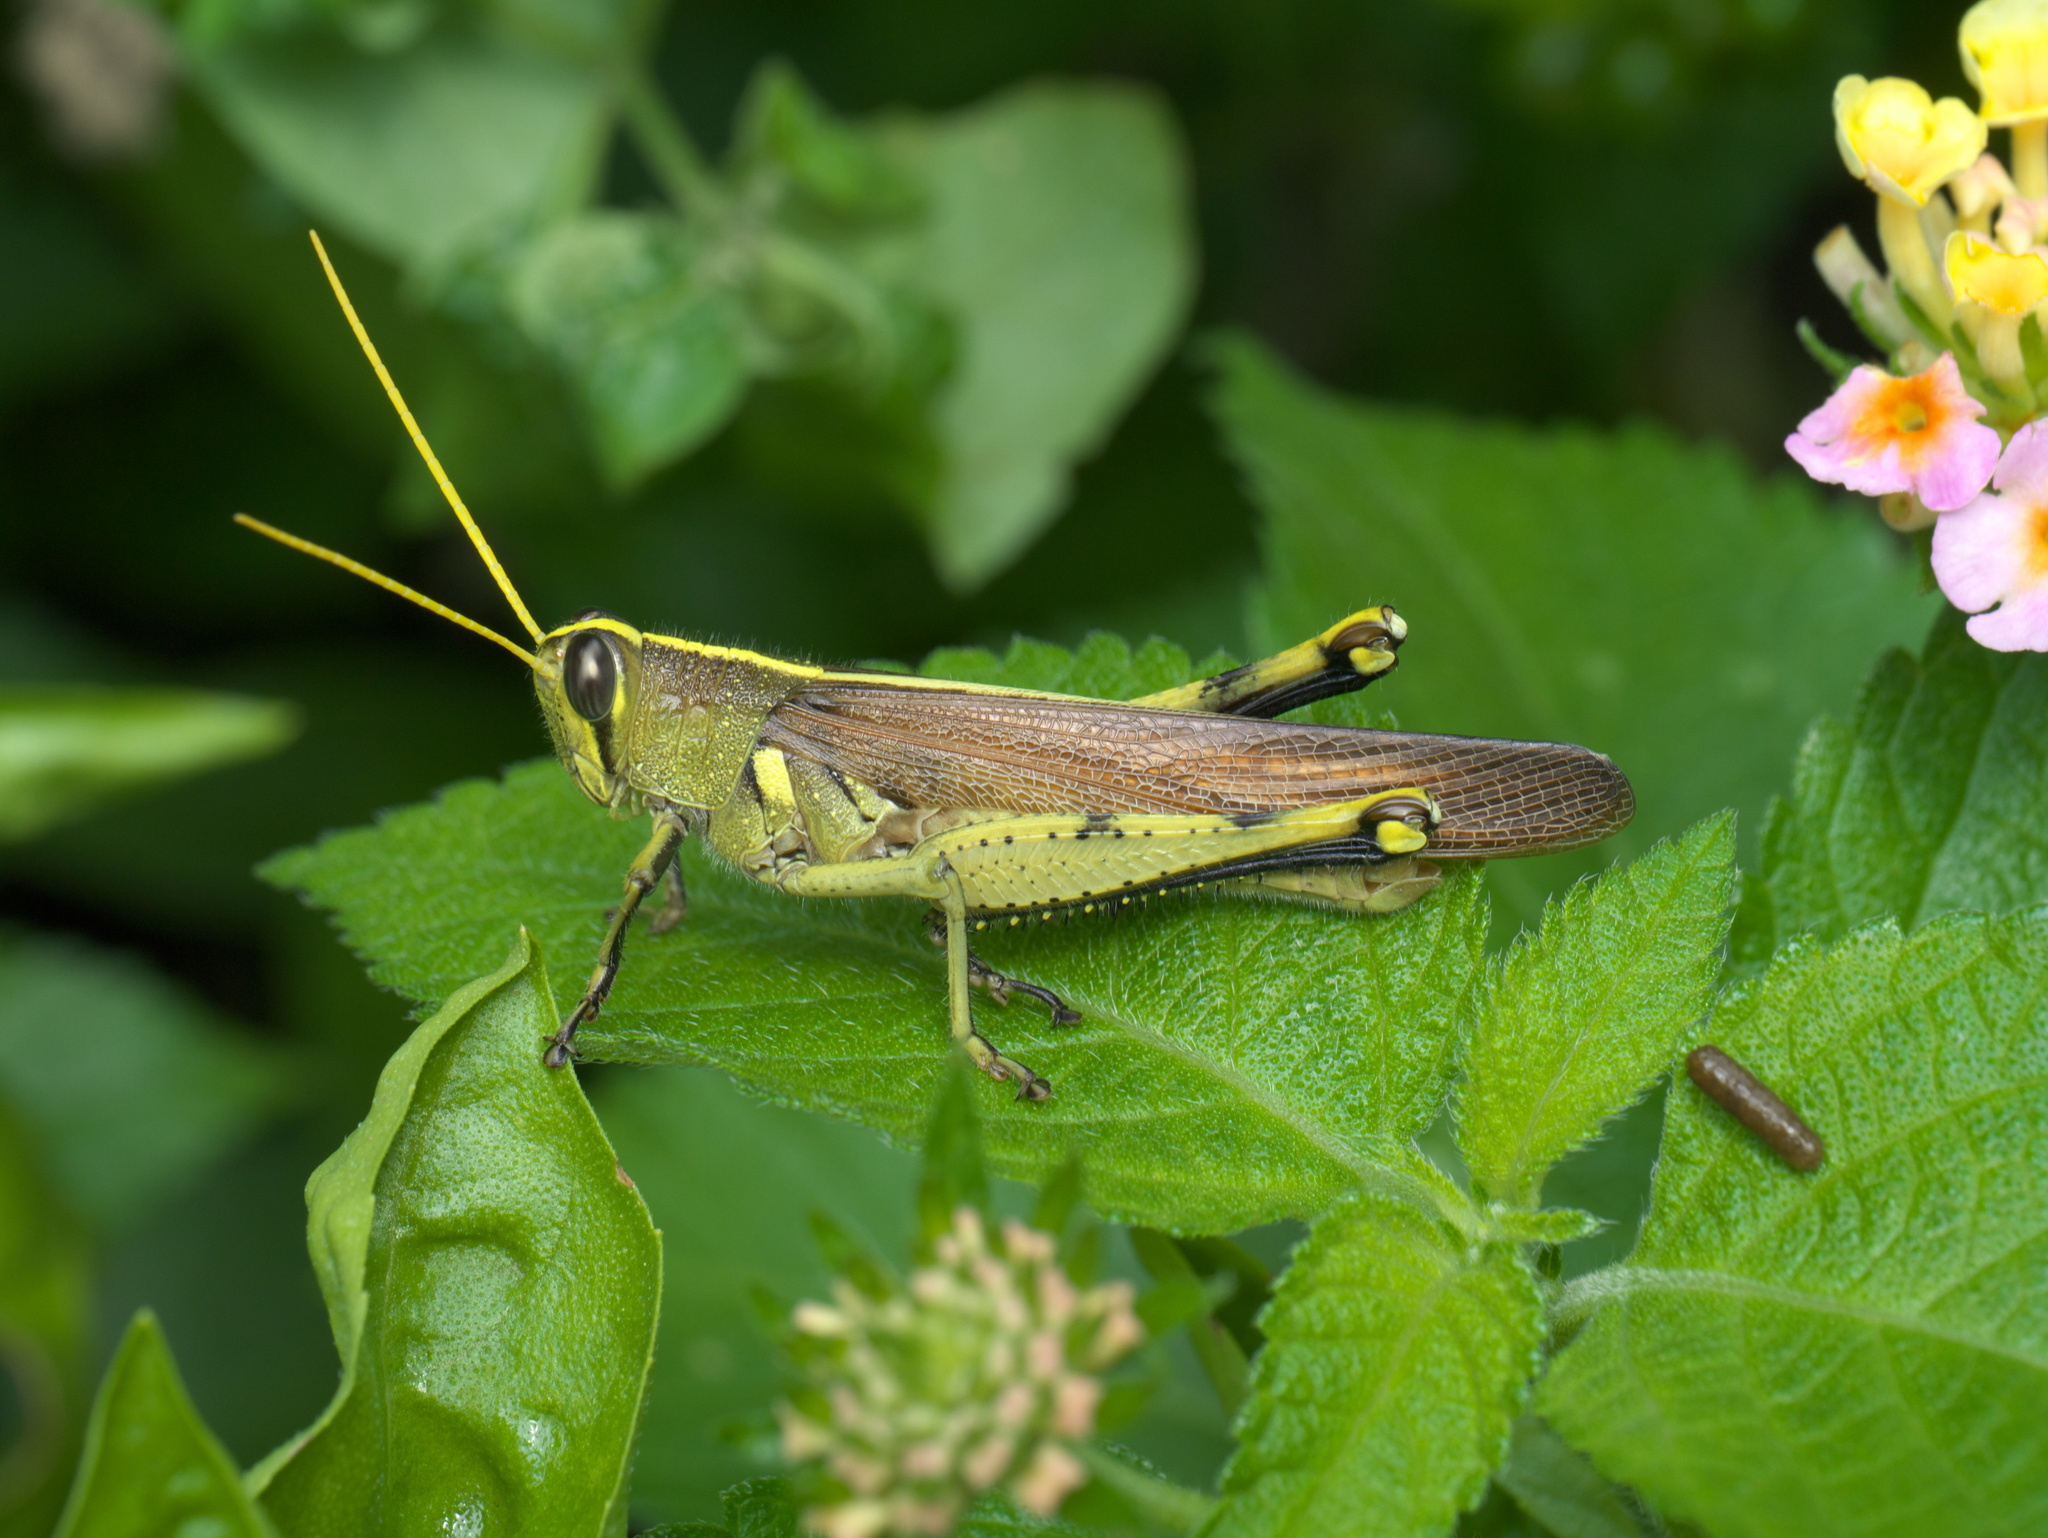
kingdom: Animalia
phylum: Arthropoda
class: Insecta
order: Orthoptera
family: Acrididae
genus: Schistocerca
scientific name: Schistocerca obscura
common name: Obscure bird grasshopper
